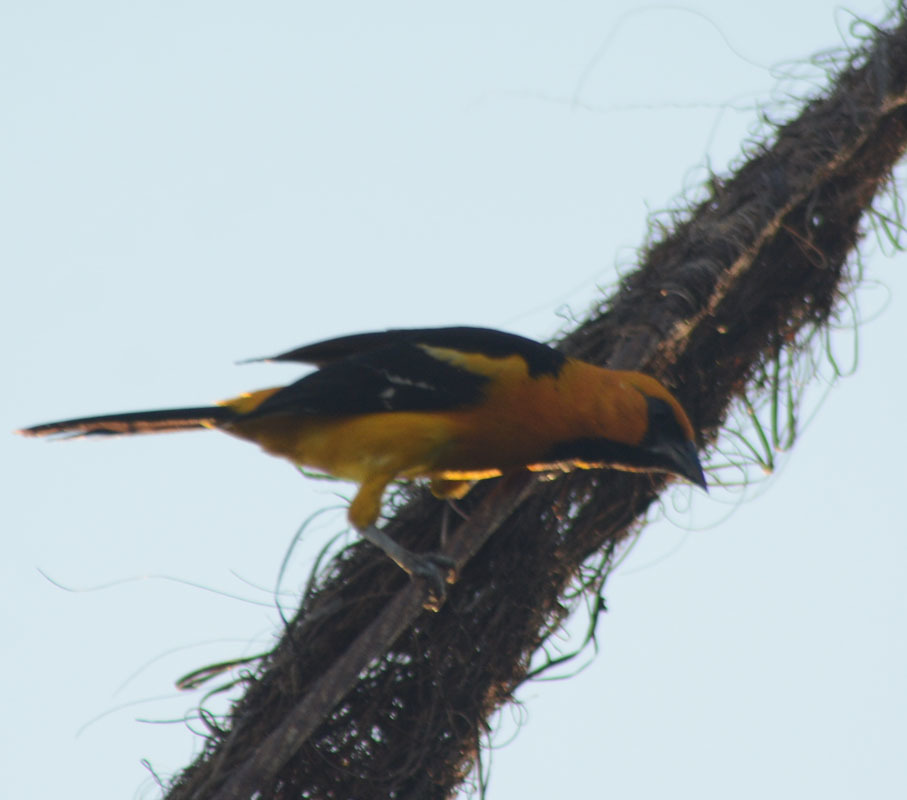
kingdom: Animalia
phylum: Chordata
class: Aves
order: Passeriformes
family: Icteridae
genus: Icterus
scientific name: Icterus gularis
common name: Altamira oriole
